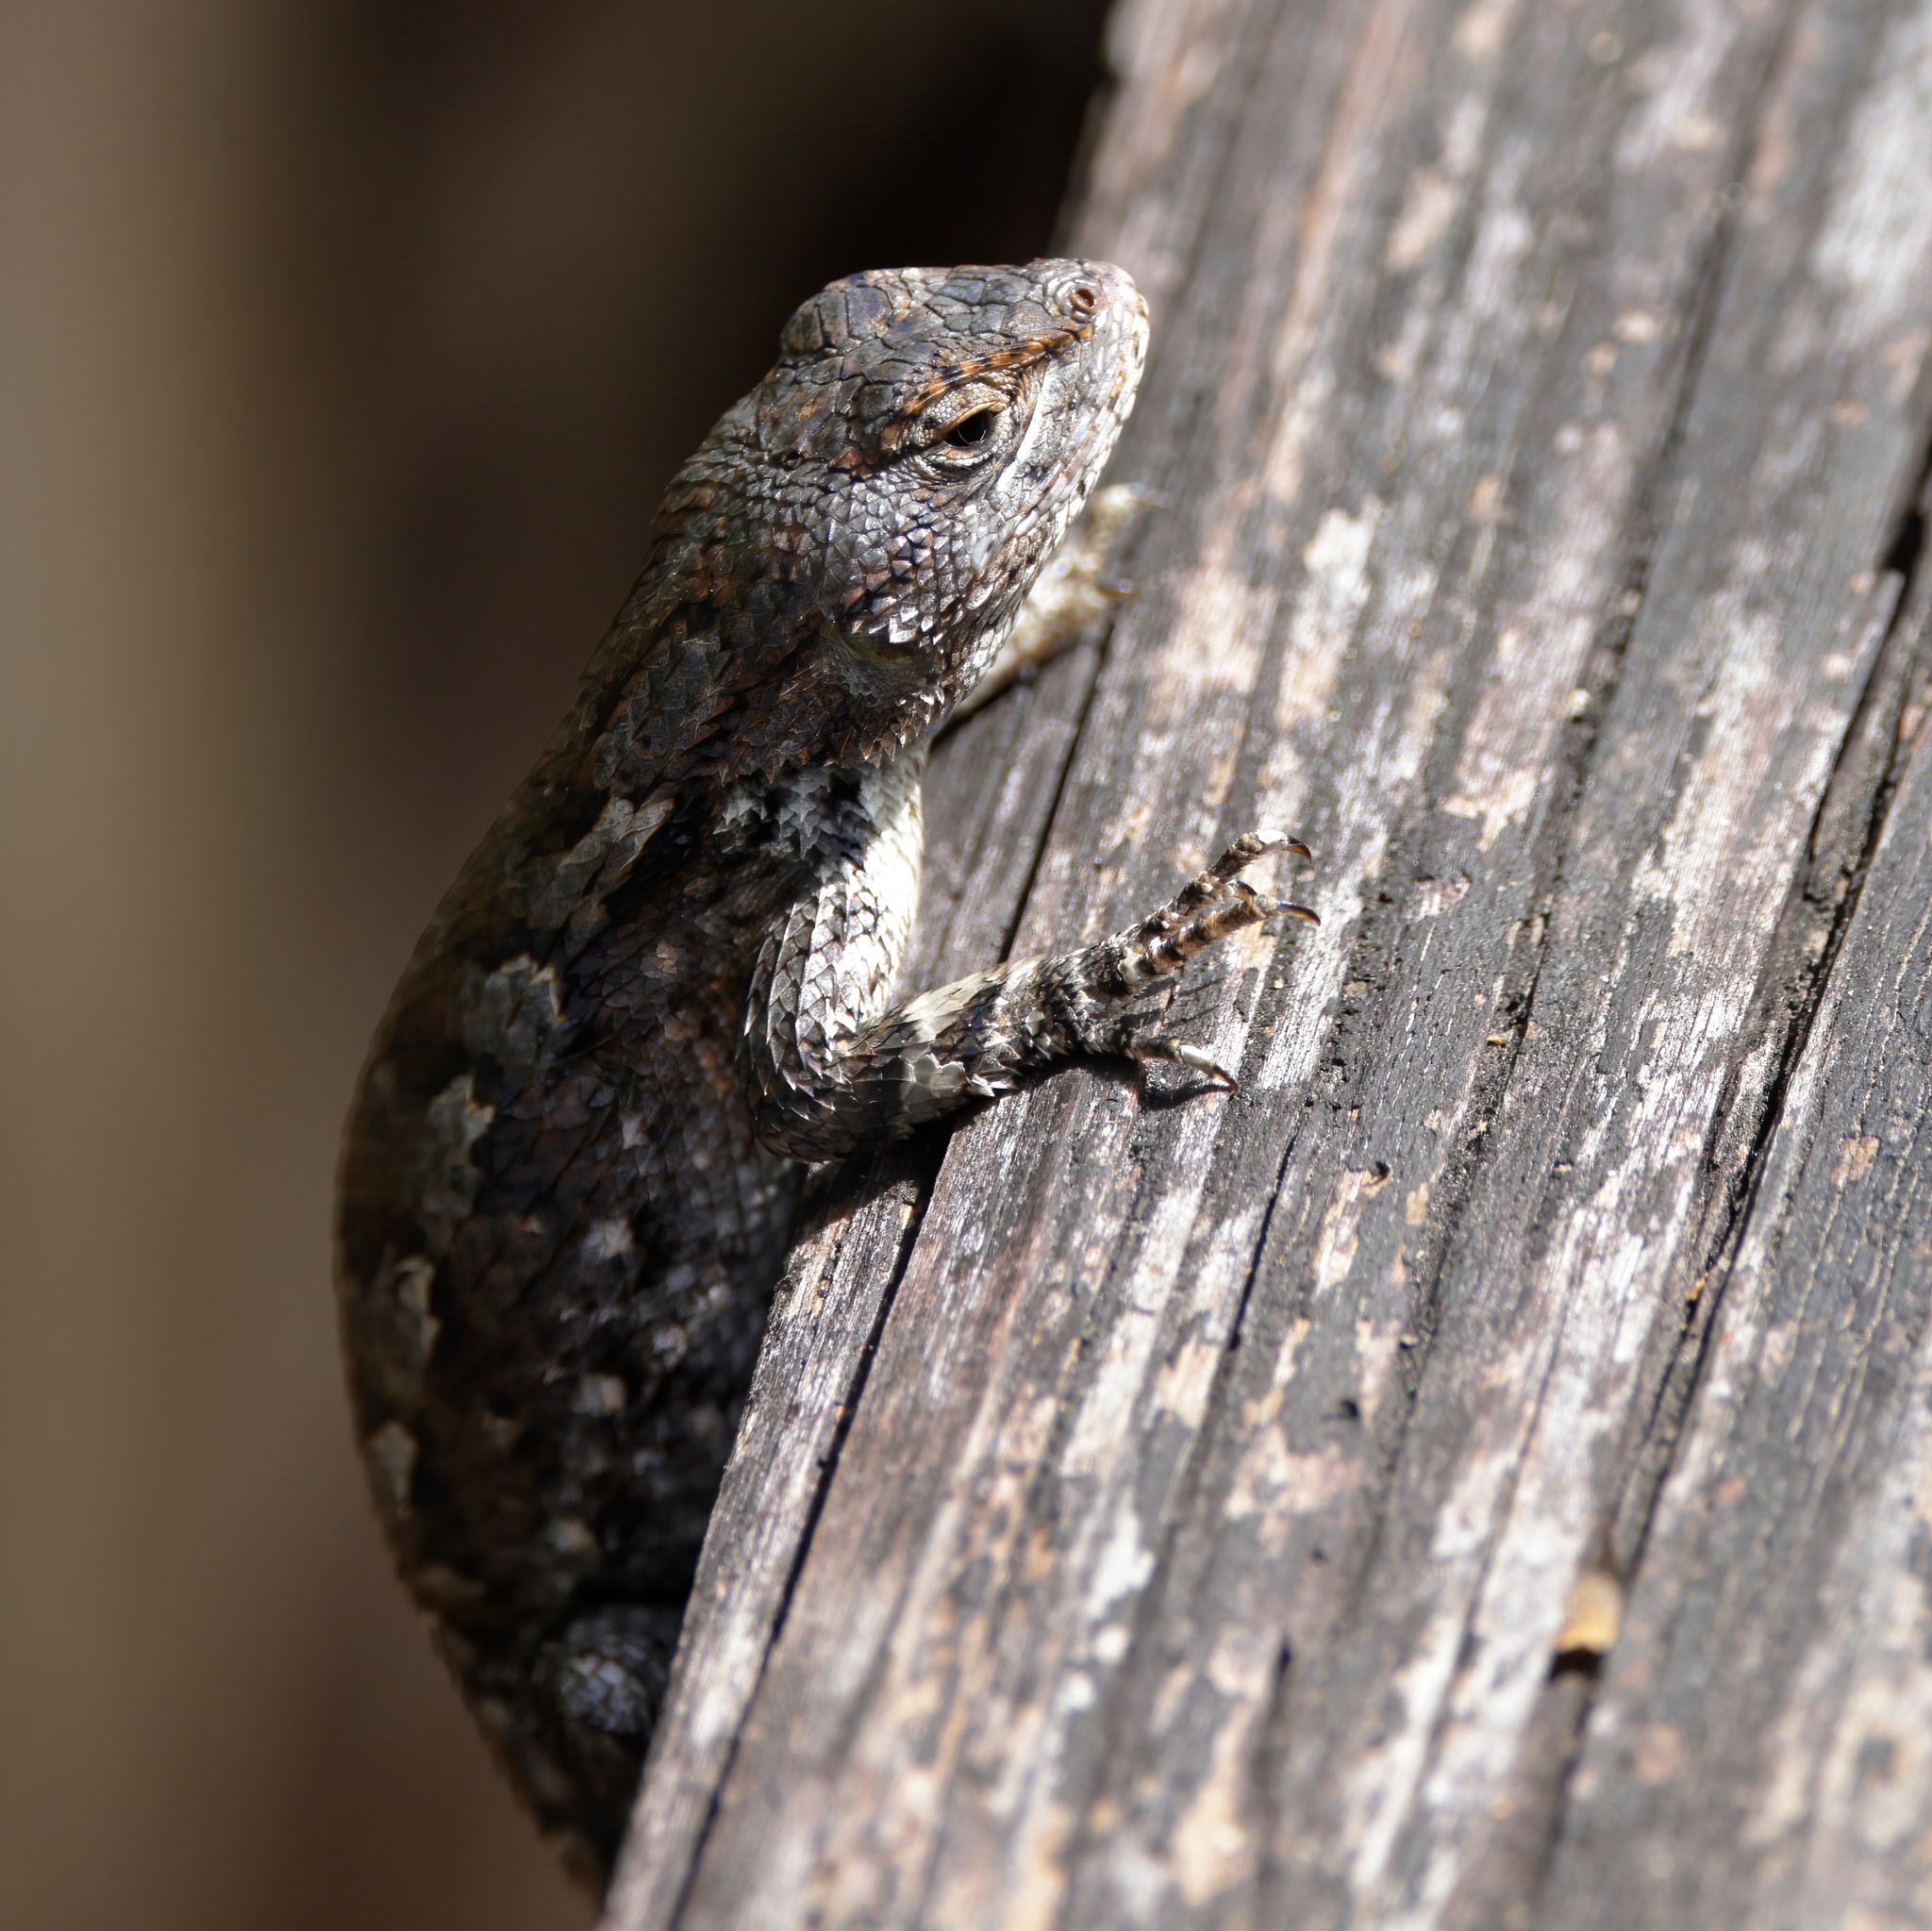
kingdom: Animalia
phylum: Chordata
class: Squamata
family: Phrynosomatidae
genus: Sceloporus
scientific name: Sceloporus undulatus
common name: Eastern fence lizard
